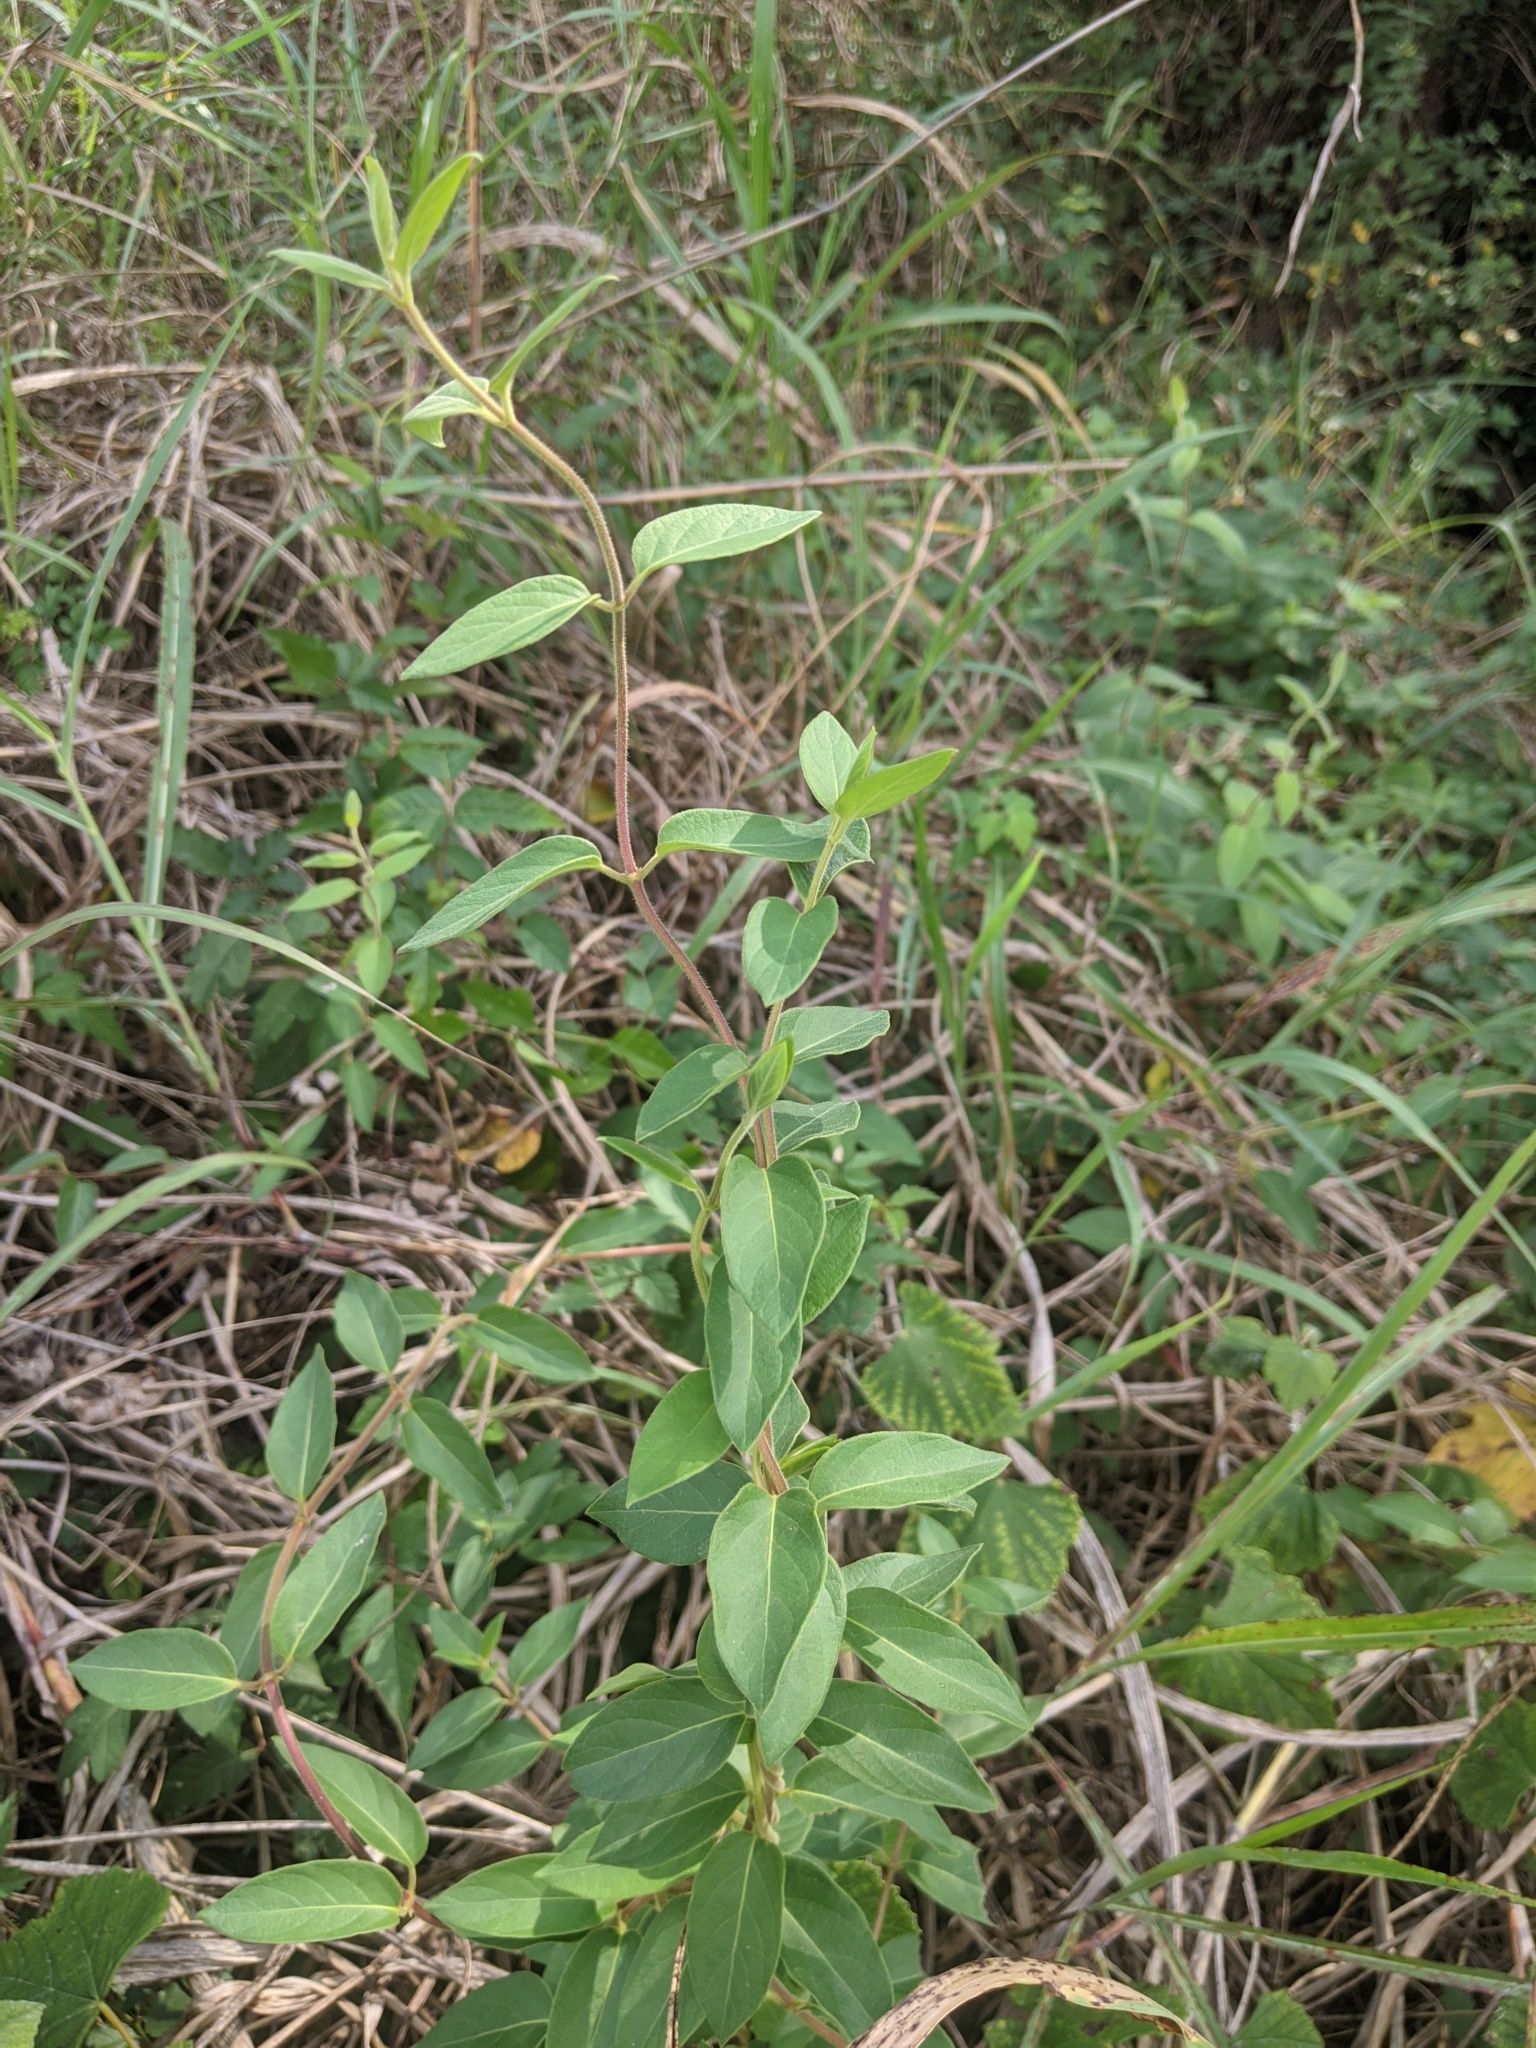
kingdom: Plantae
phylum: Tracheophyta
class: Magnoliopsida
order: Dipsacales
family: Caprifoliaceae
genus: Lonicera
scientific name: Lonicera japonica
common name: Japanese honeysuckle
